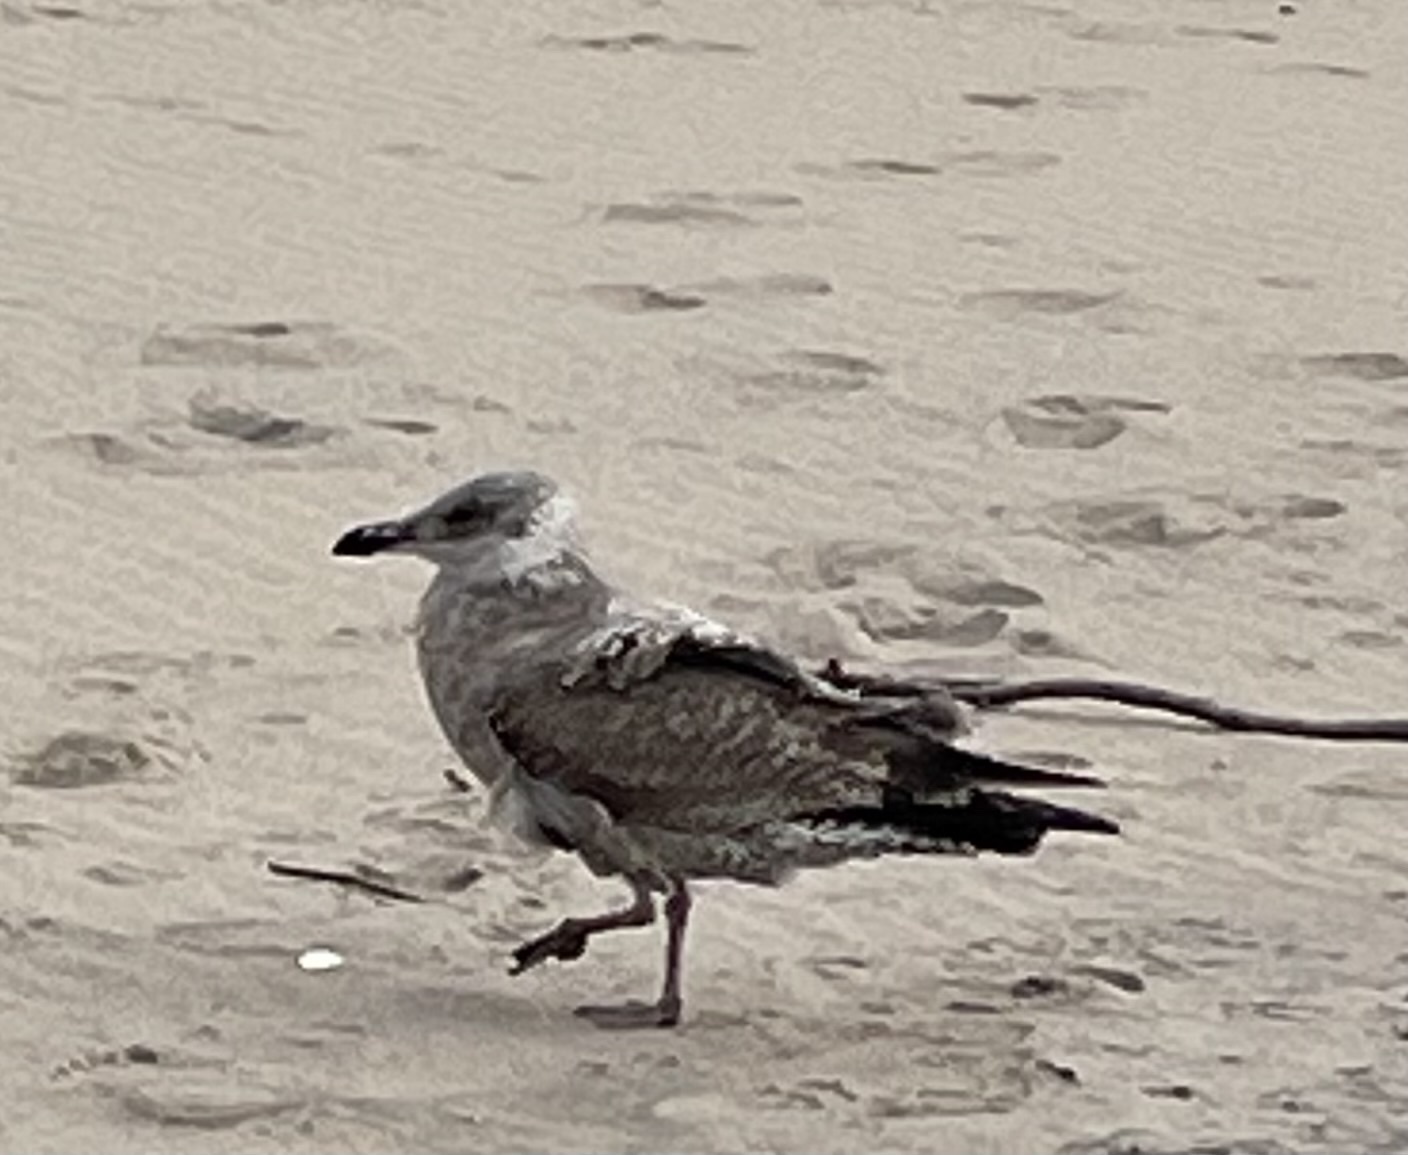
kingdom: Animalia
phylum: Chordata
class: Aves
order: Charadriiformes
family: Laridae
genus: Larus
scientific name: Larus argentatus
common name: Herring gull
